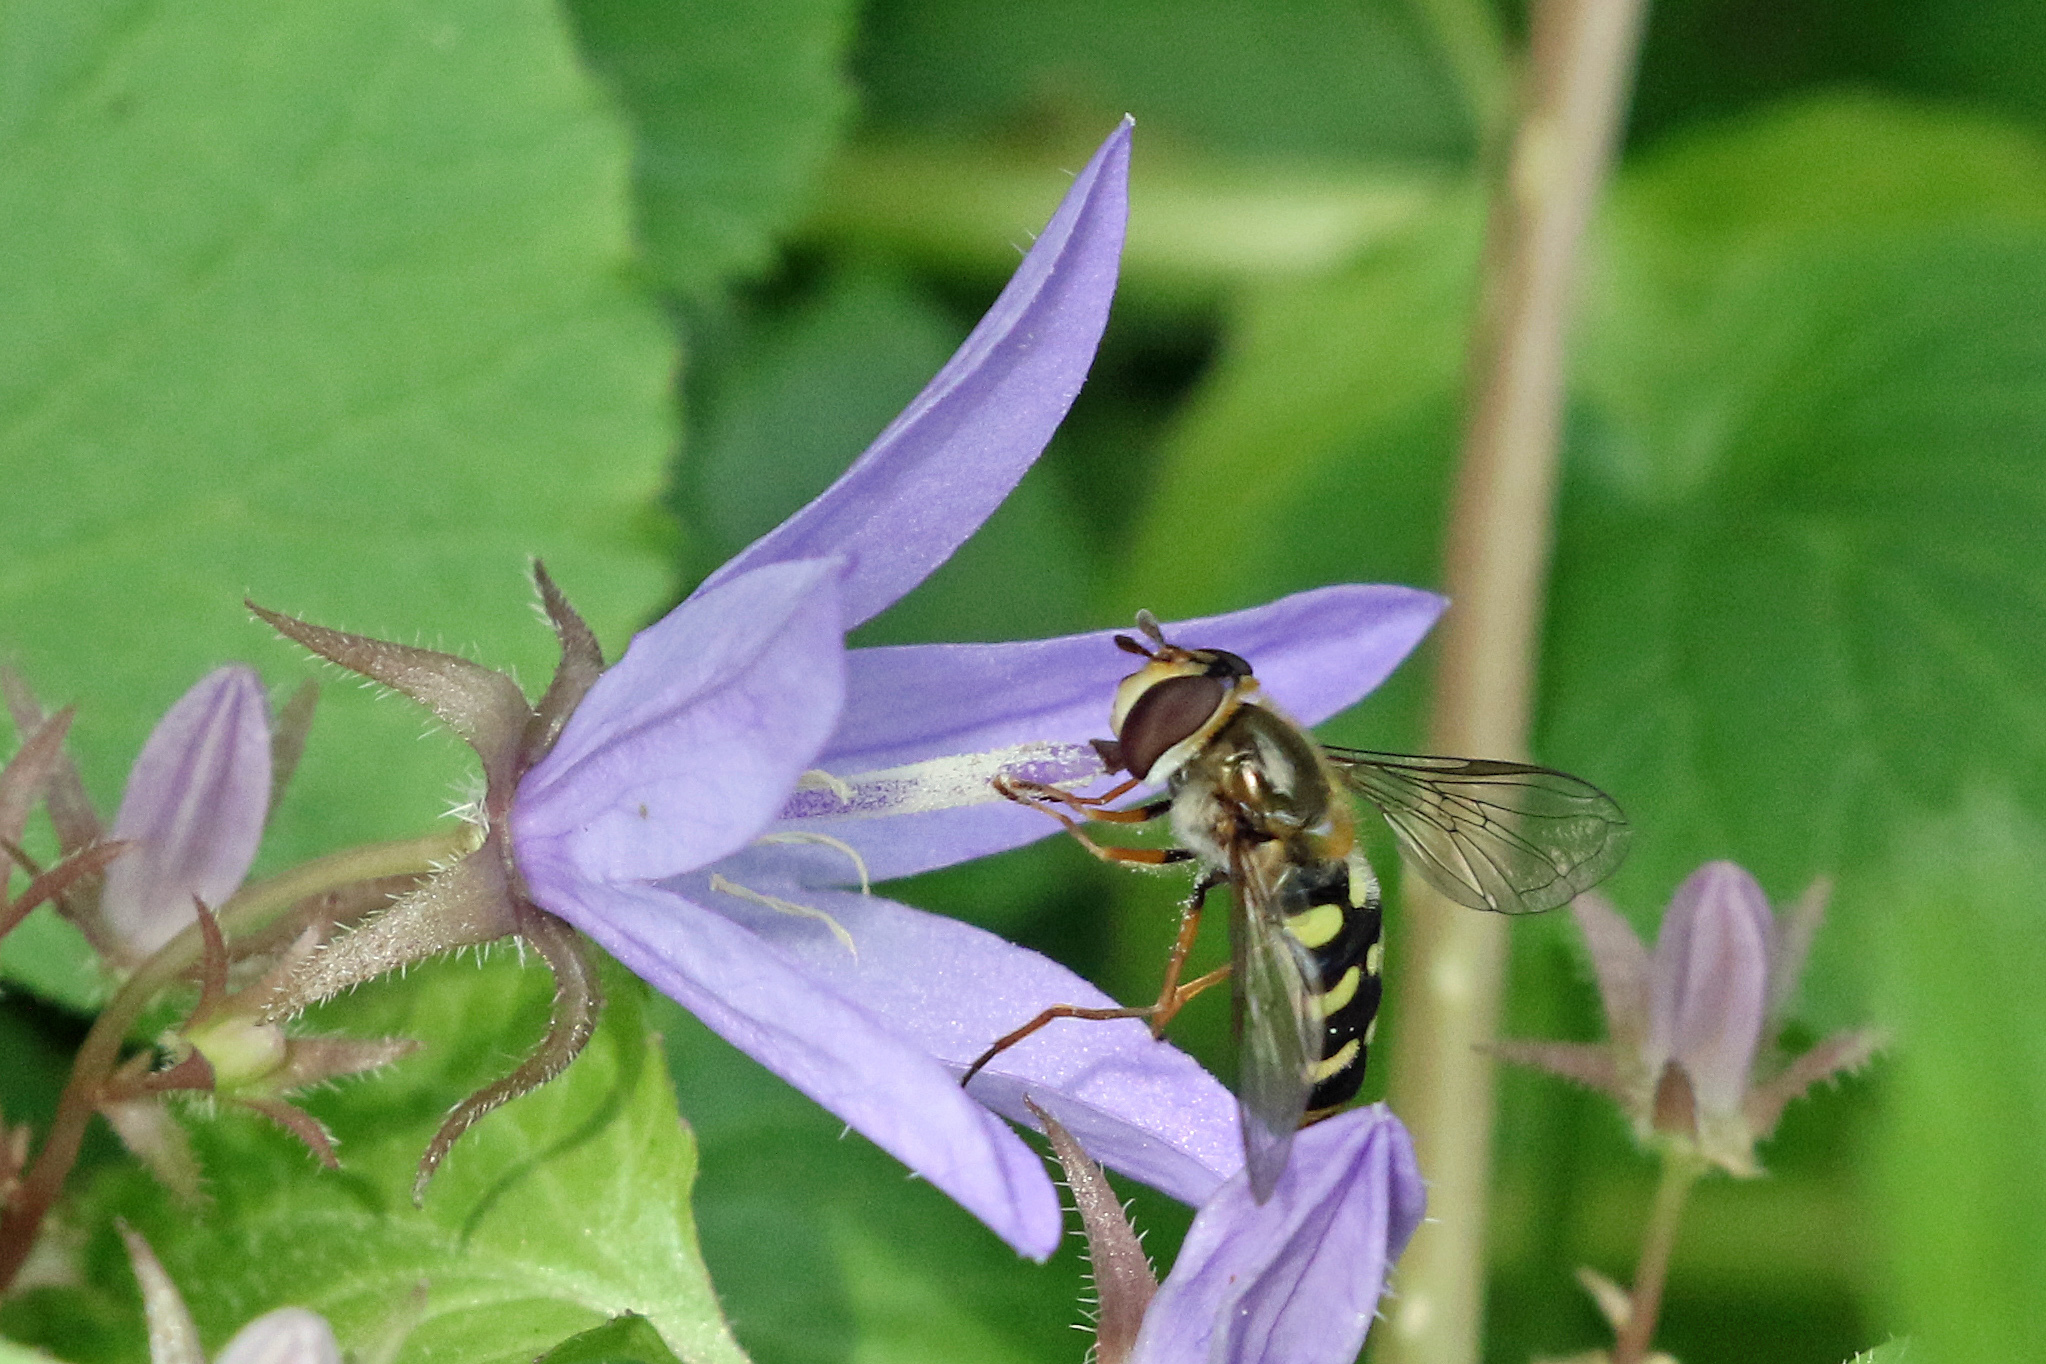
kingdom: Animalia
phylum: Arthropoda
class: Insecta
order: Diptera
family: Syrphidae
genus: Eupeodes
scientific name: Eupeodes luniger
